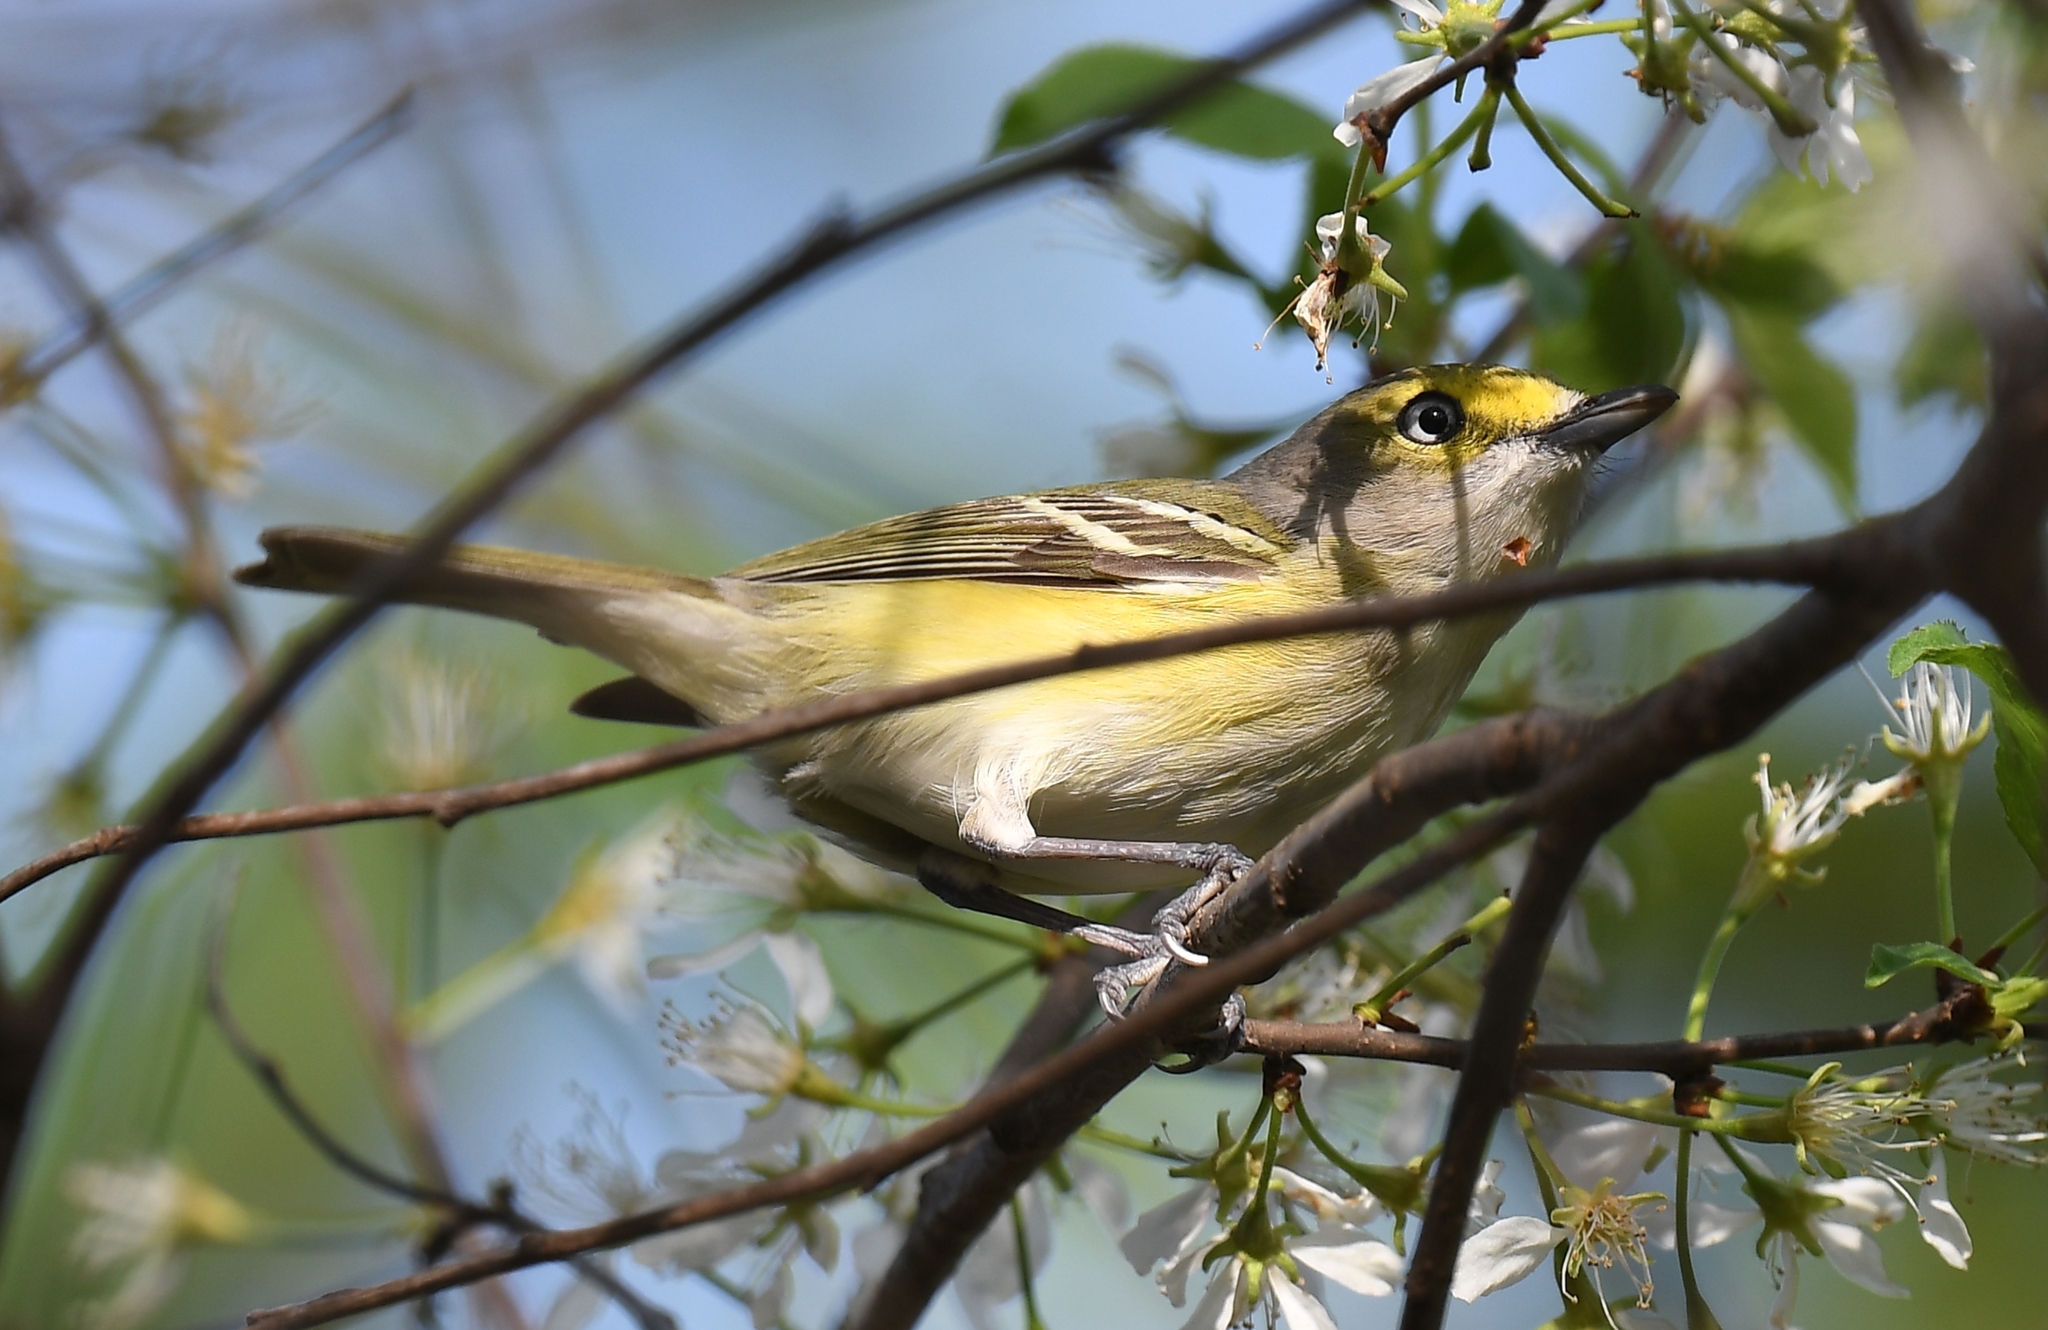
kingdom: Animalia
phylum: Chordata
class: Aves
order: Passeriformes
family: Vireonidae
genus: Vireo
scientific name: Vireo griseus
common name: White-eyed vireo
